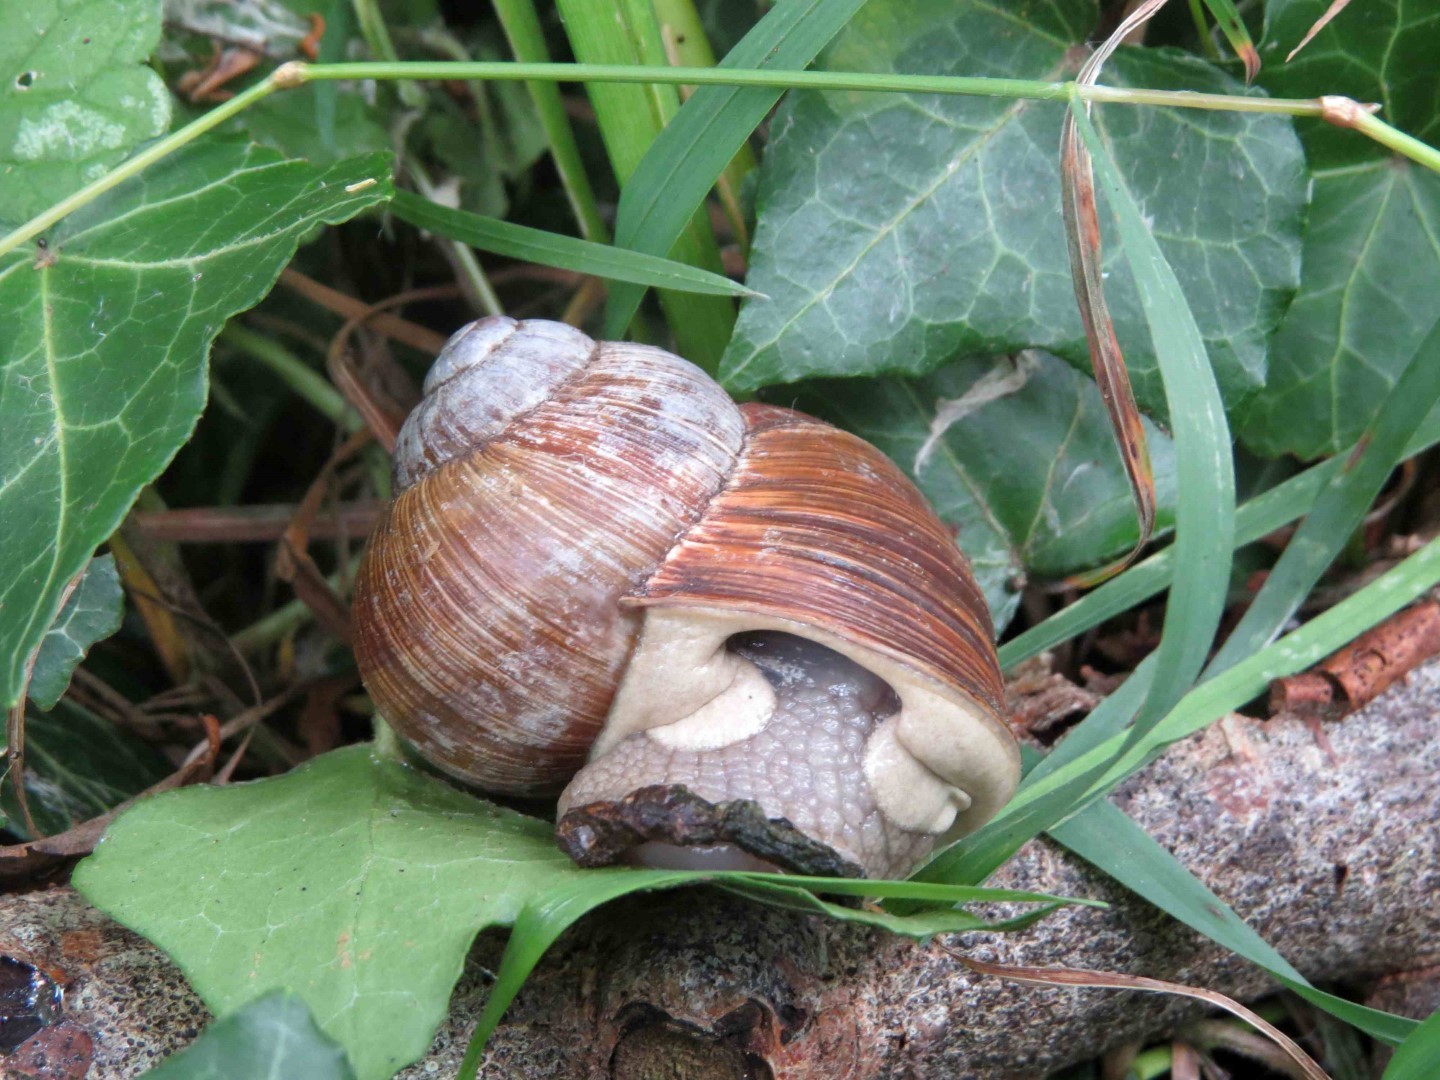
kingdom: Animalia
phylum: Mollusca
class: Gastropoda
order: Stylommatophora
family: Helicidae
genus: Helix
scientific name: Helix pomatia
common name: Roman snail
